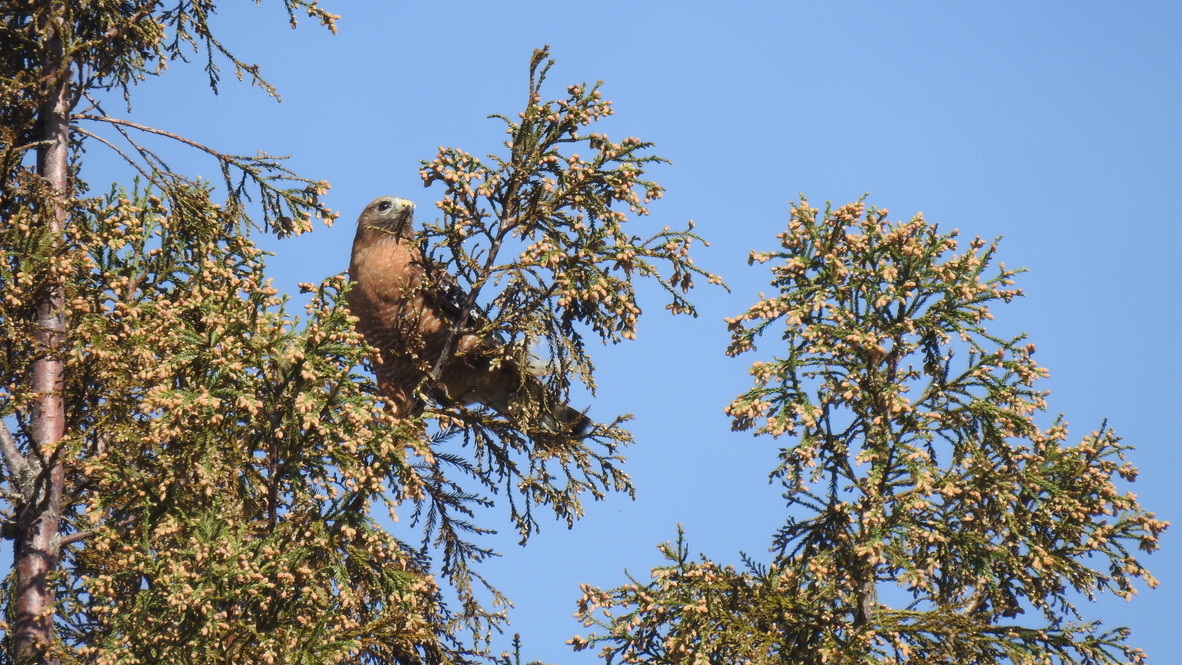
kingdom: Animalia
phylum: Chordata
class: Aves
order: Accipitriformes
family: Accipitridae
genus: Buteo
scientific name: Buteo lineatus
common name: Red-shouldered hawk
